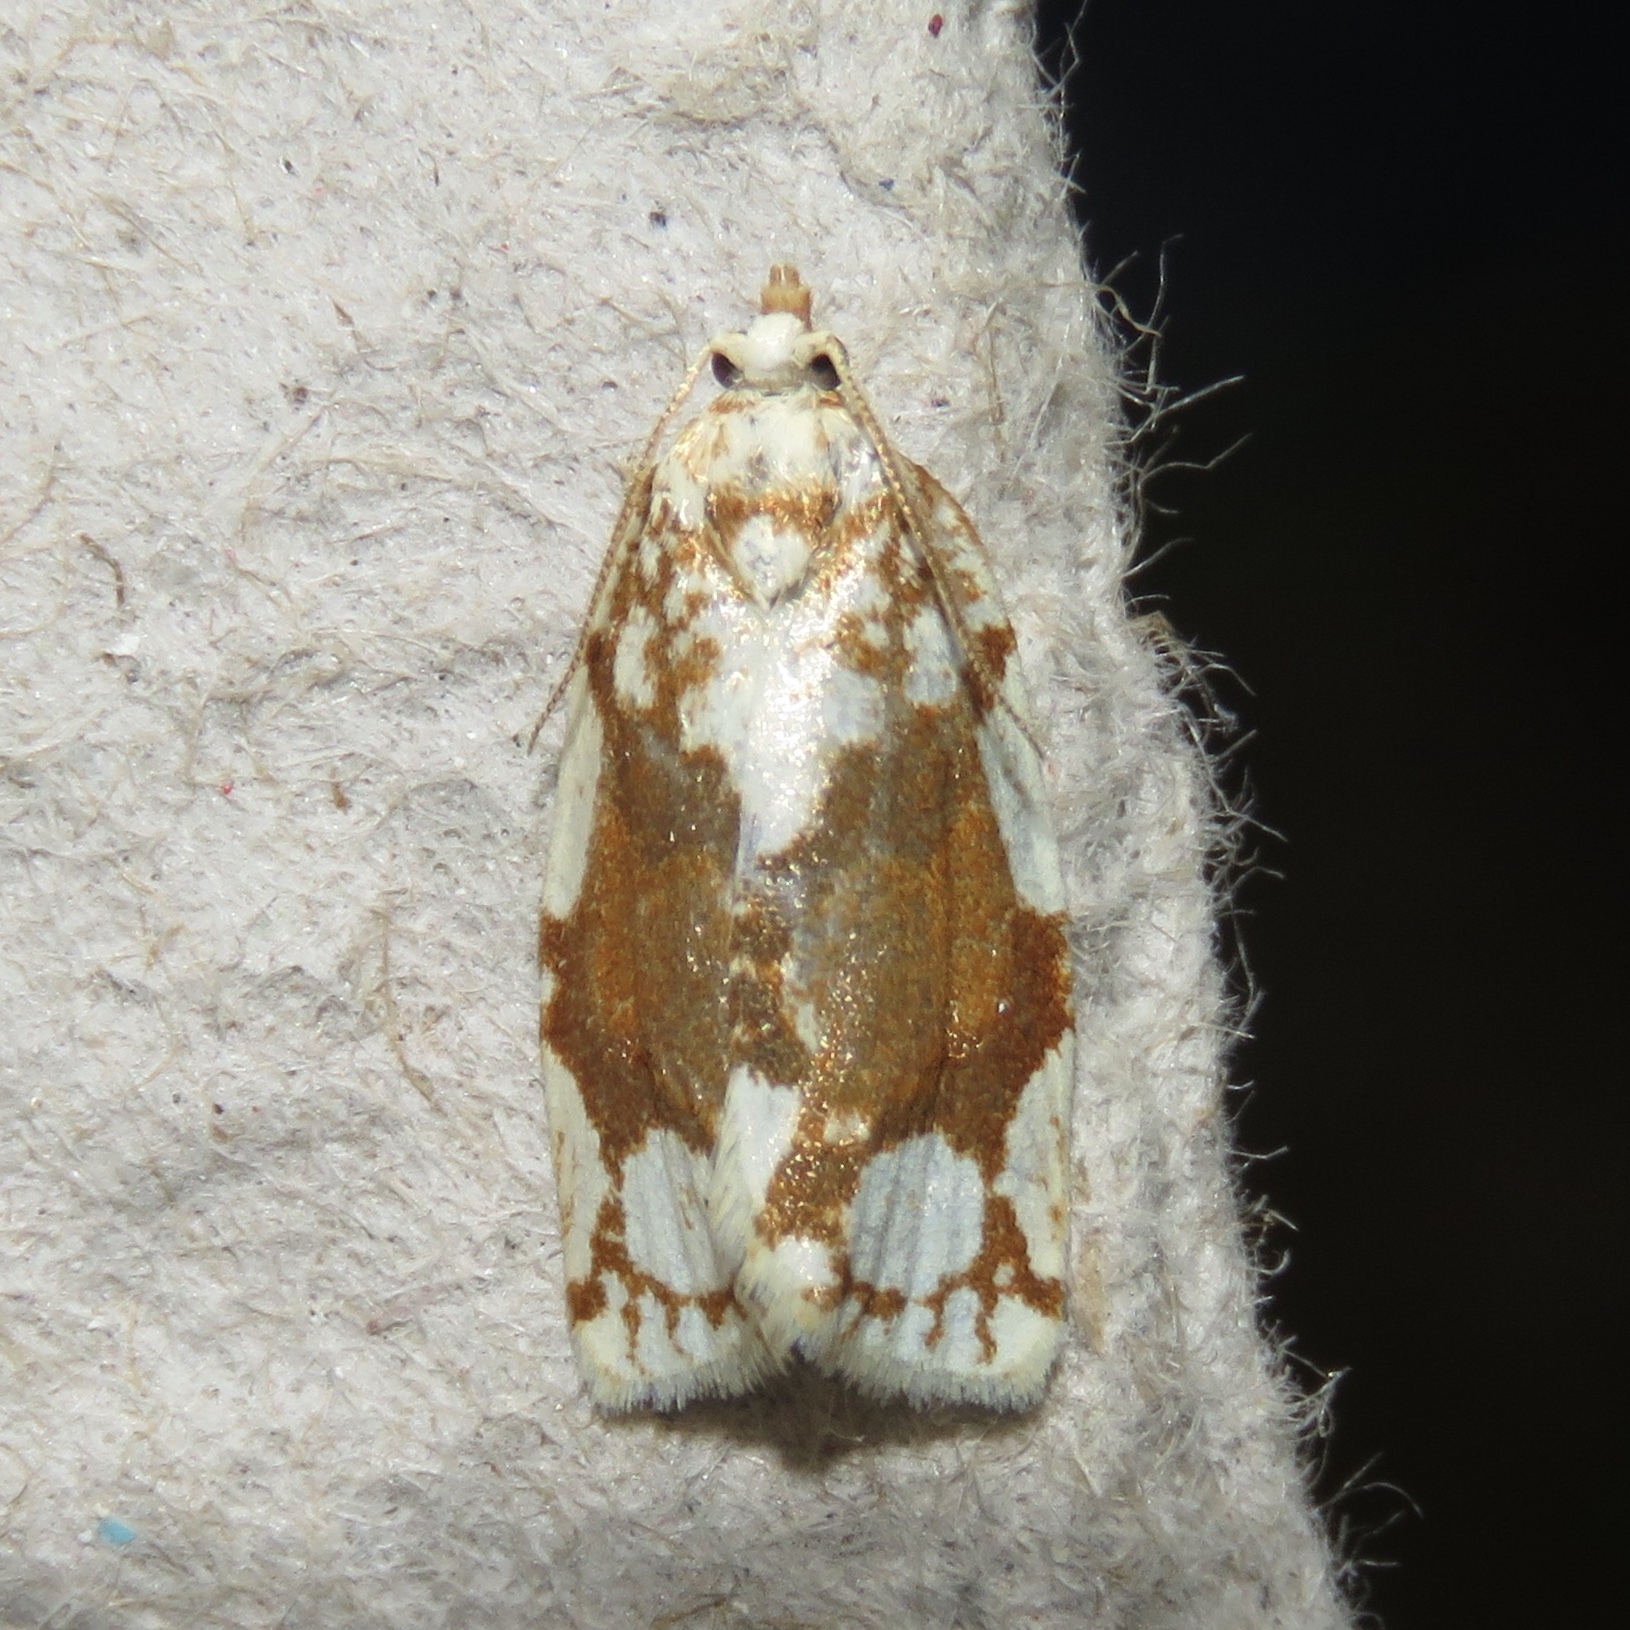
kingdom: Animalia
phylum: Arthropoda
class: Insecta
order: Lepidoptera
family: Tortricidae
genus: Argyrotaenia
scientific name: Argyrotaenia alisellana
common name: White-spotted leafroller moth
